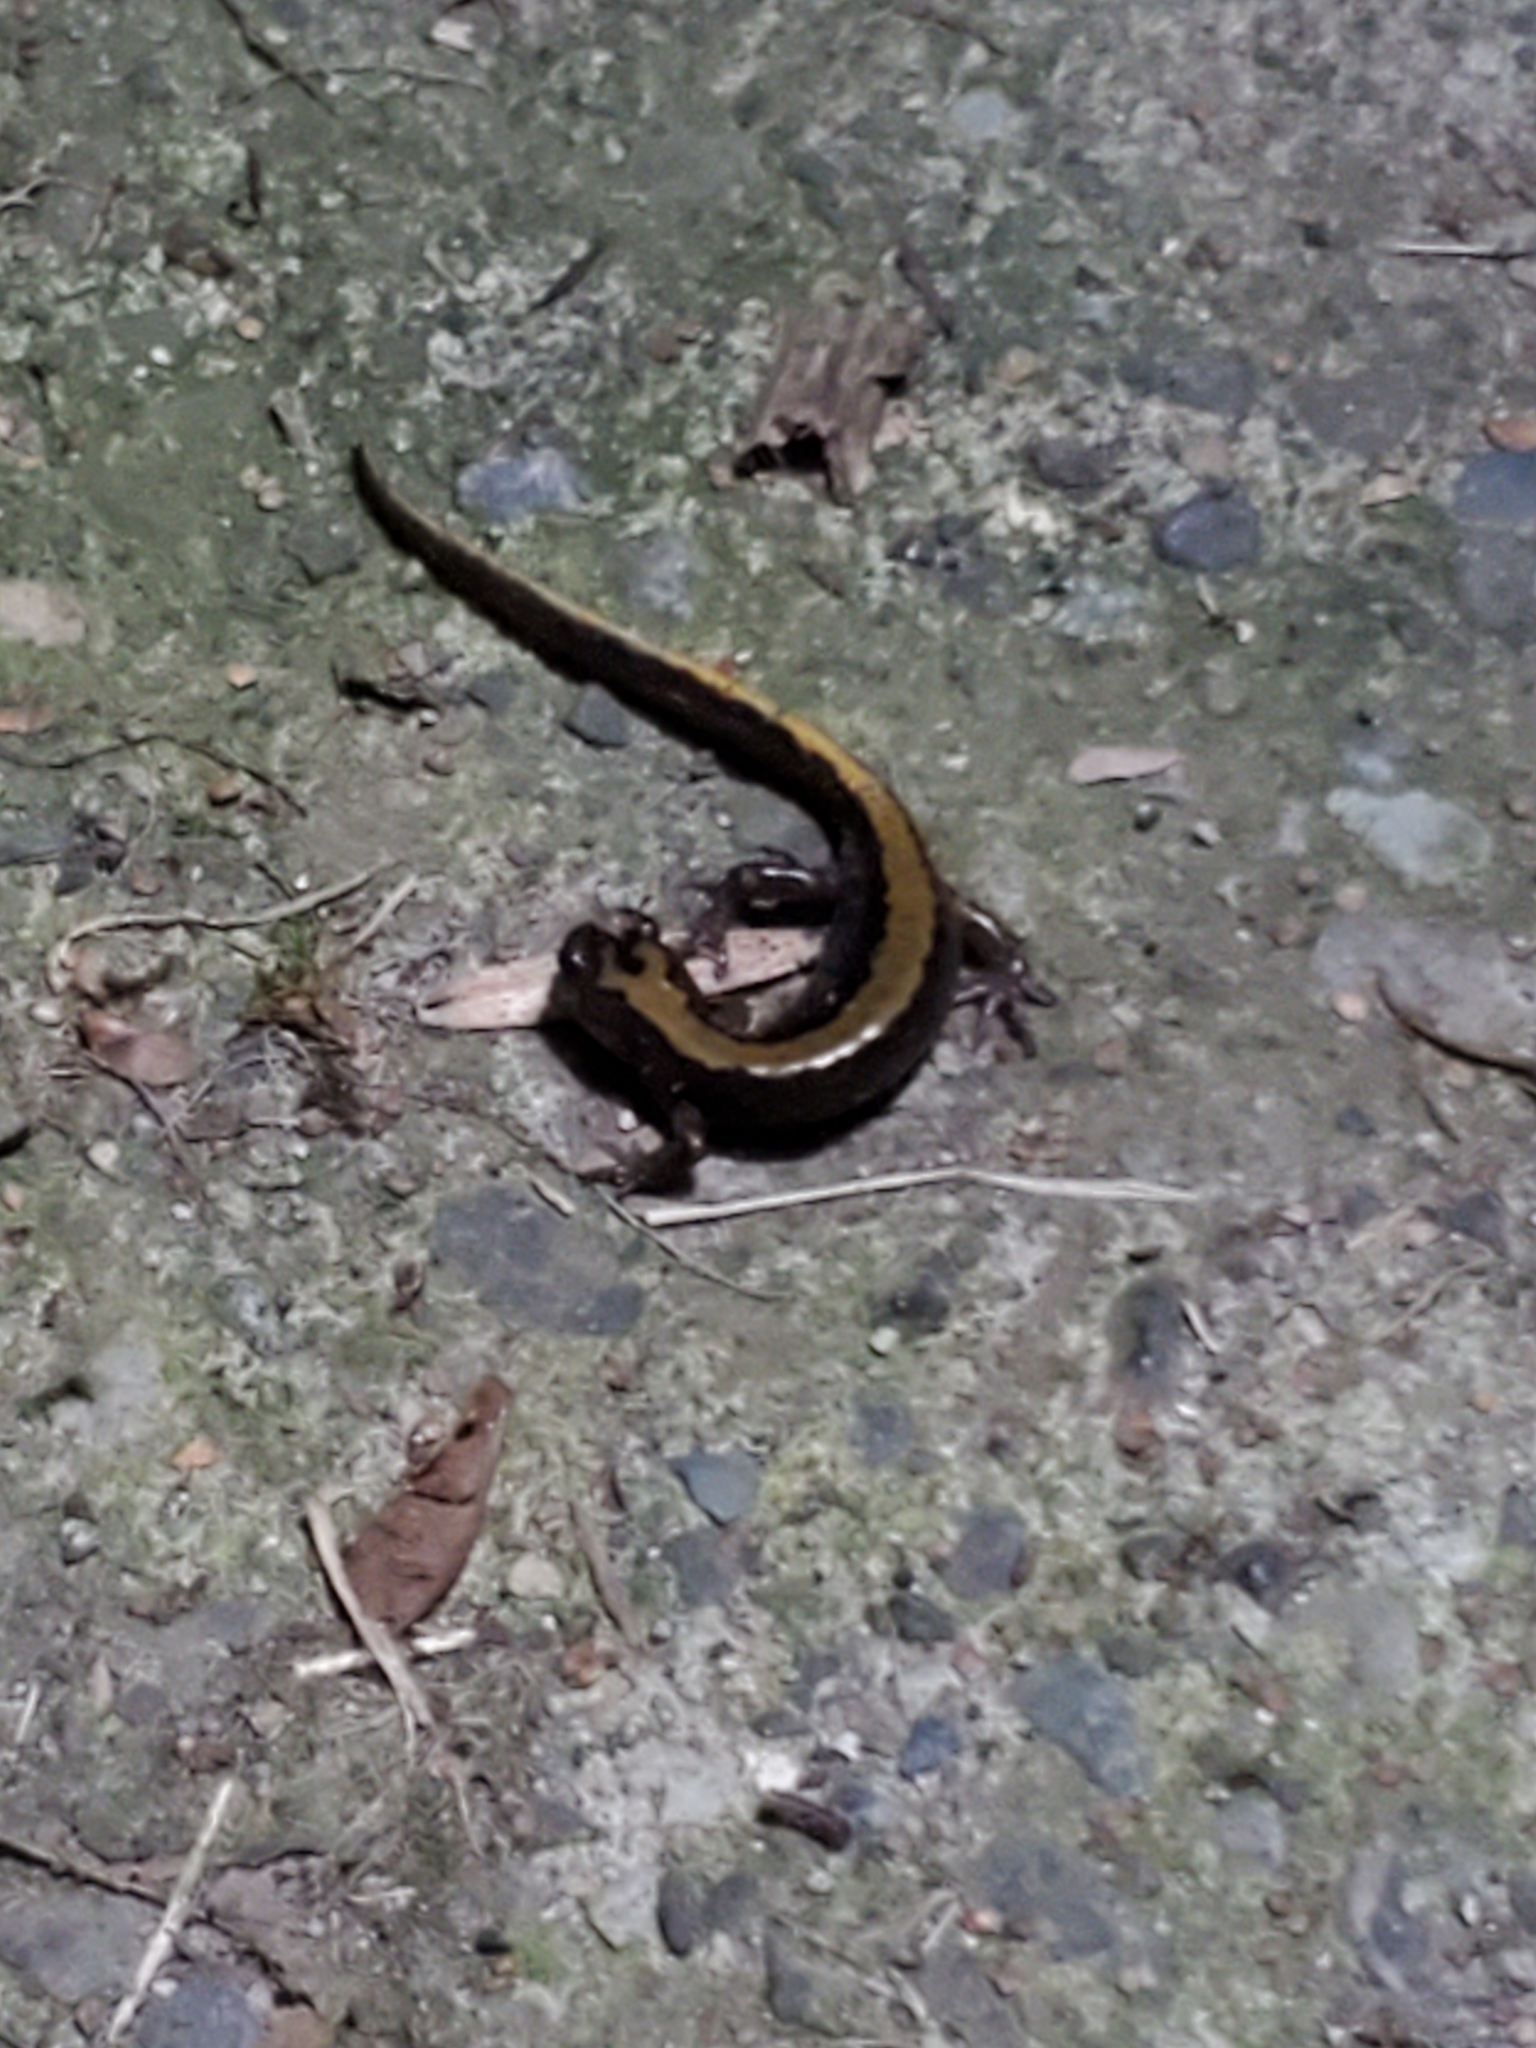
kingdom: Animalia
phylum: Chordata
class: Amphibia
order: Caudata
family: Ambystomatidae
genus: Ambystoma
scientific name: Ambystoma macrodactylum
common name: Long-toed salamander
